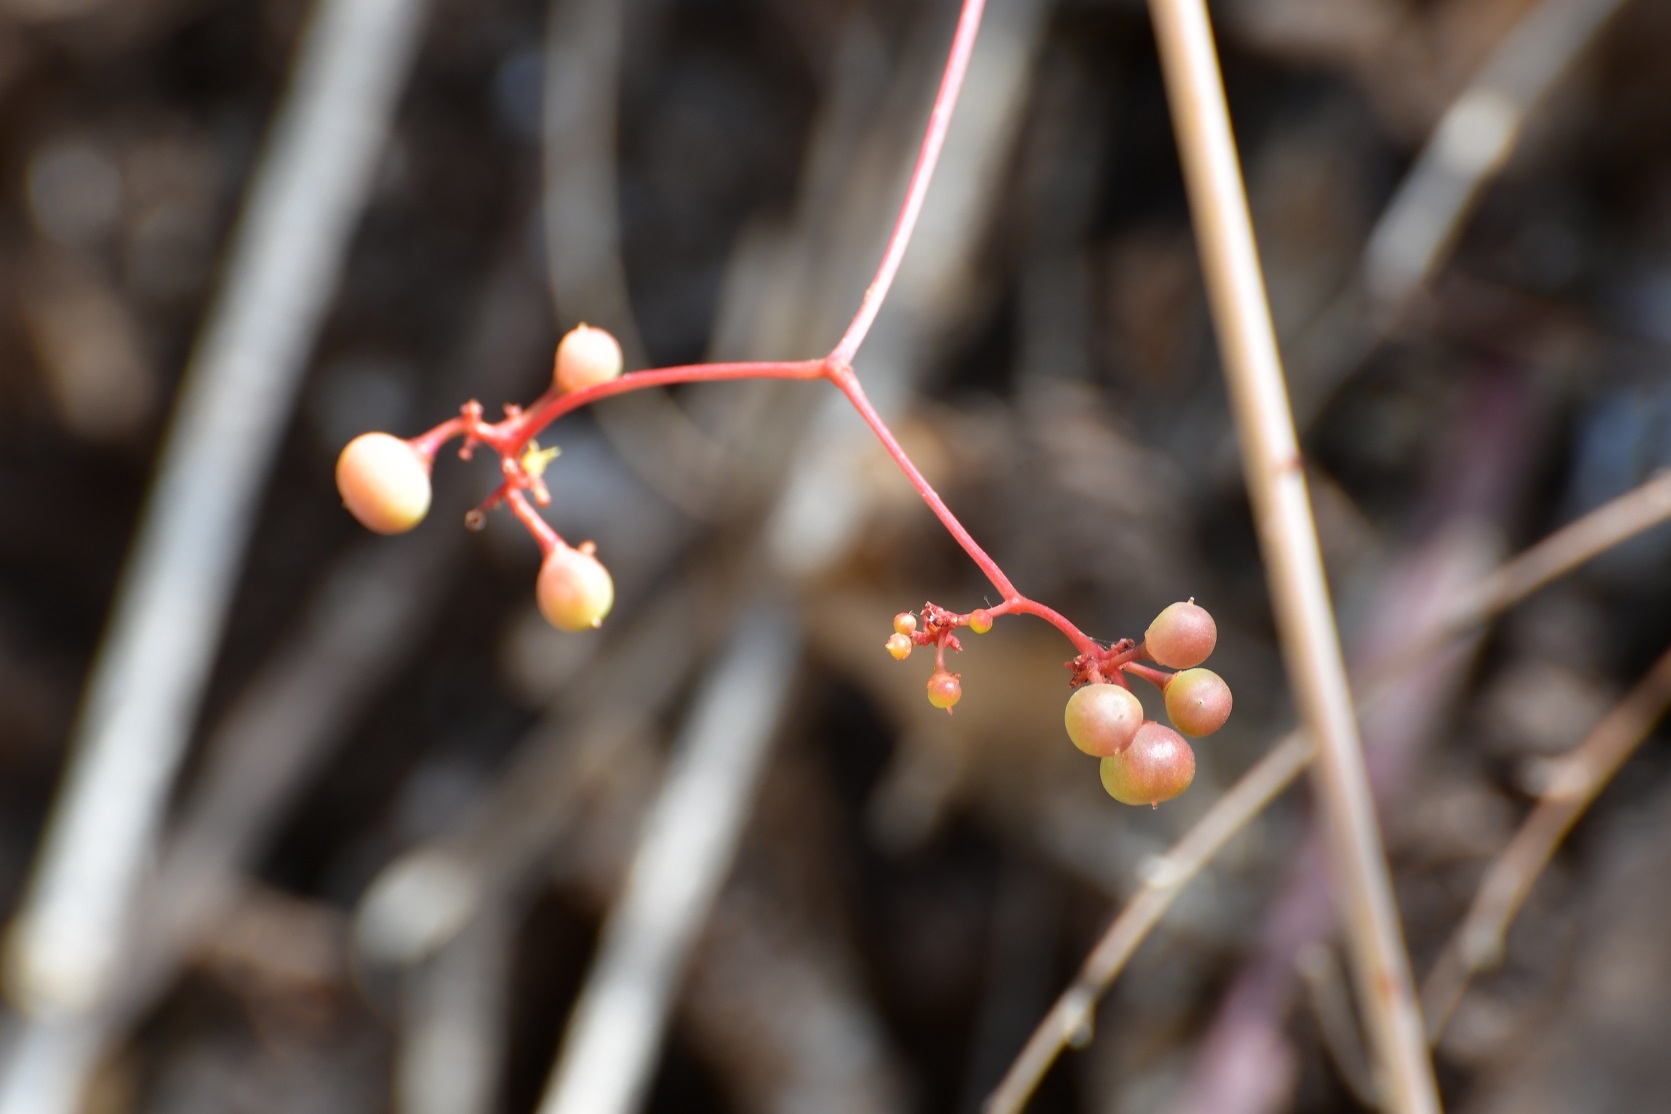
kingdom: Plantae
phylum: Tracheophyta
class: Magnoliopsida
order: Vitales
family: Vitaceae
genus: Ampelopsis
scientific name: Ampelopsis denudata
